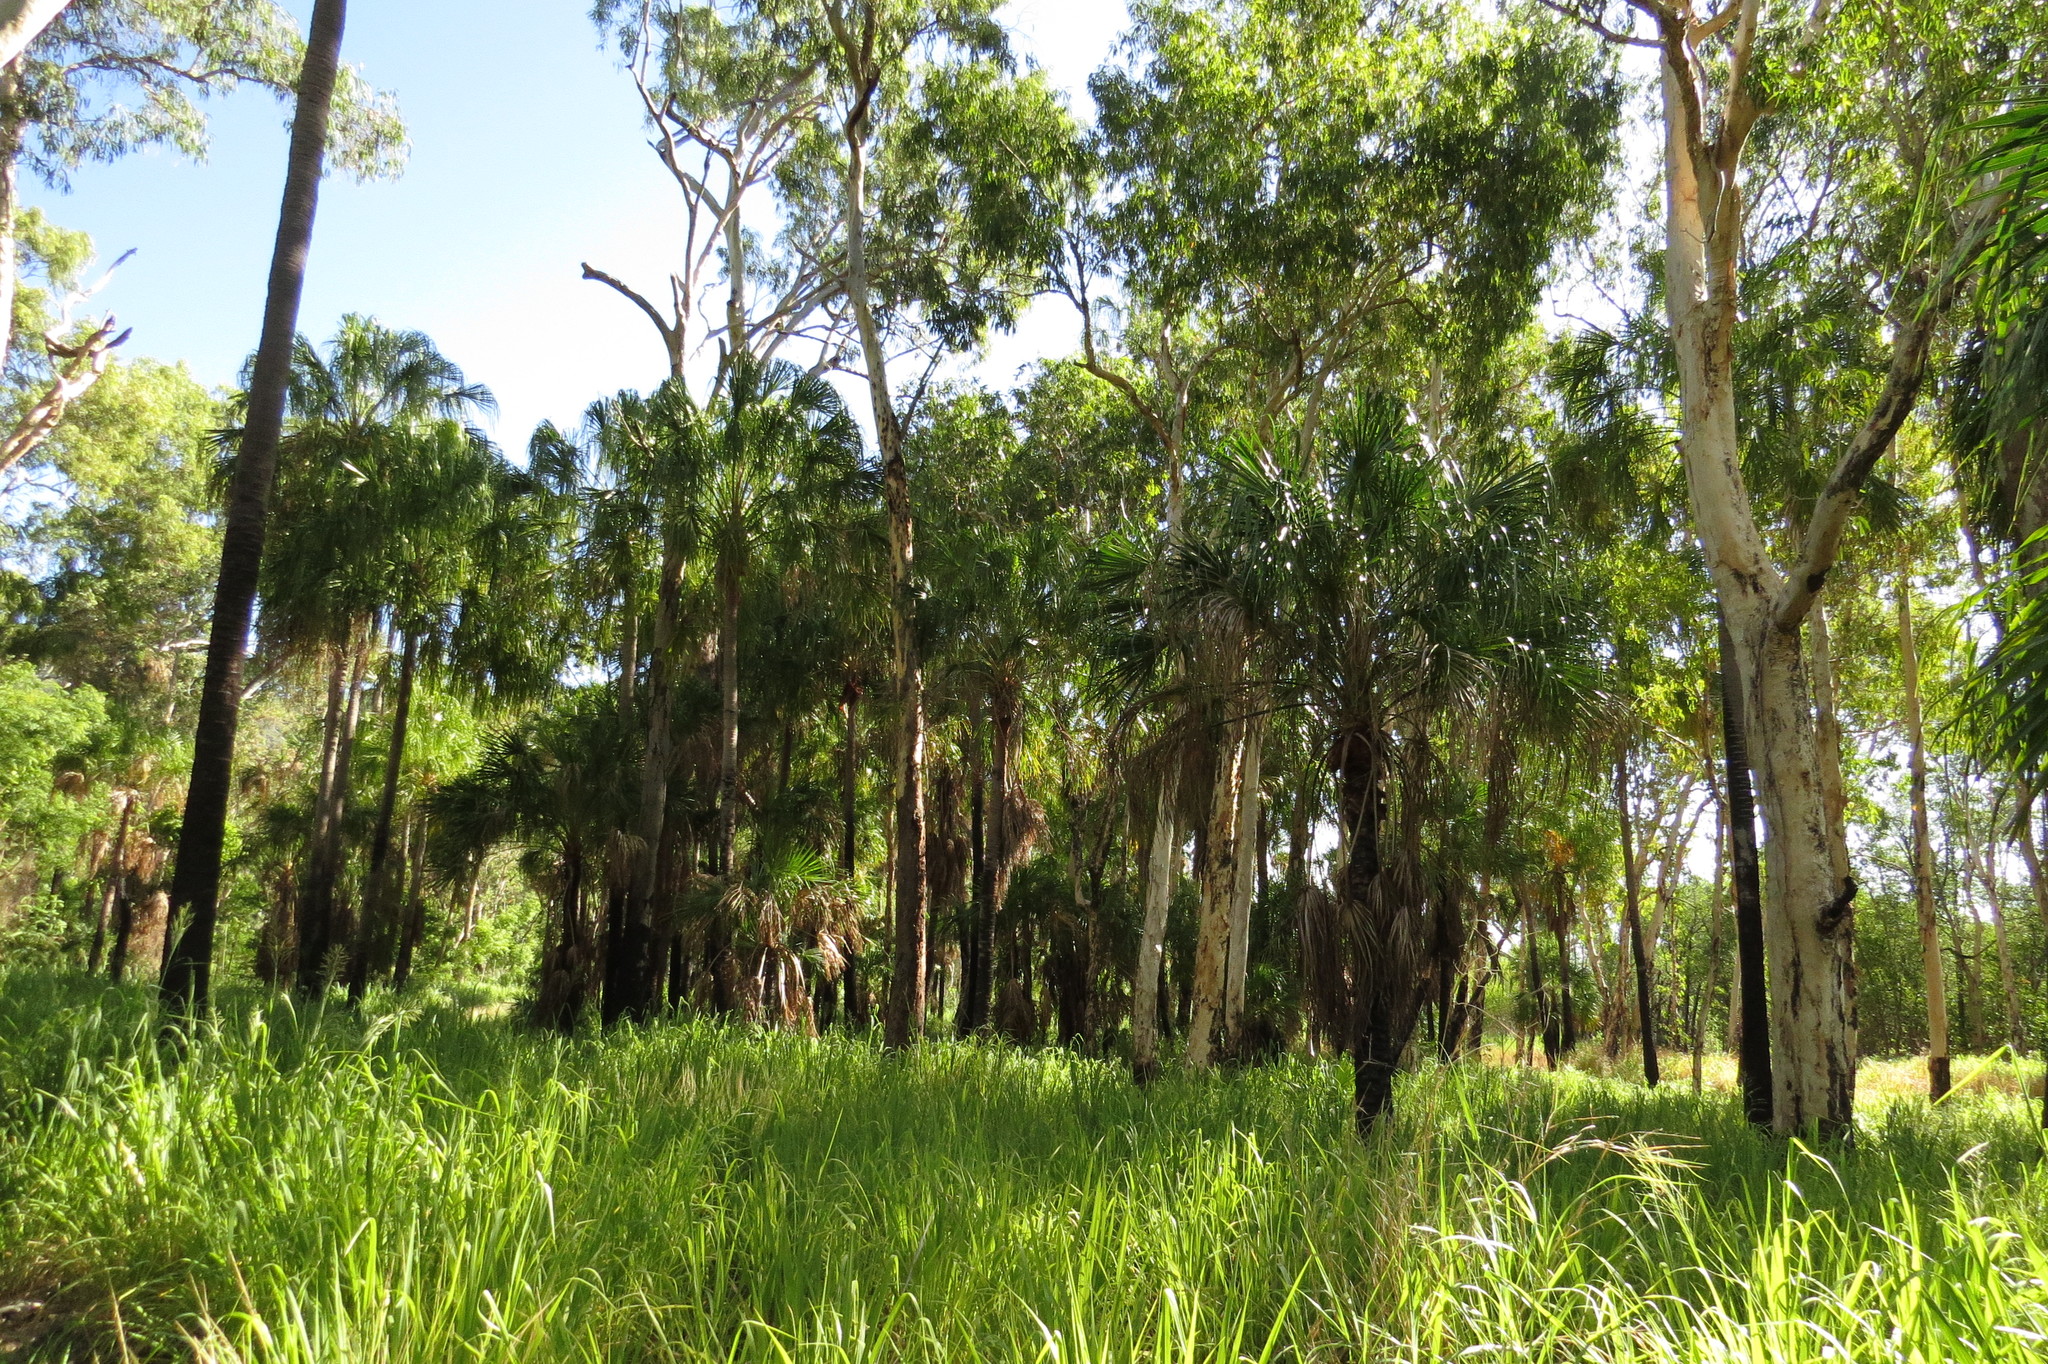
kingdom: Plantae
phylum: Tracheophyta
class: Liliopsida
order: Arecales
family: Arecaceae
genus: Livistona
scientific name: Livistona decora
